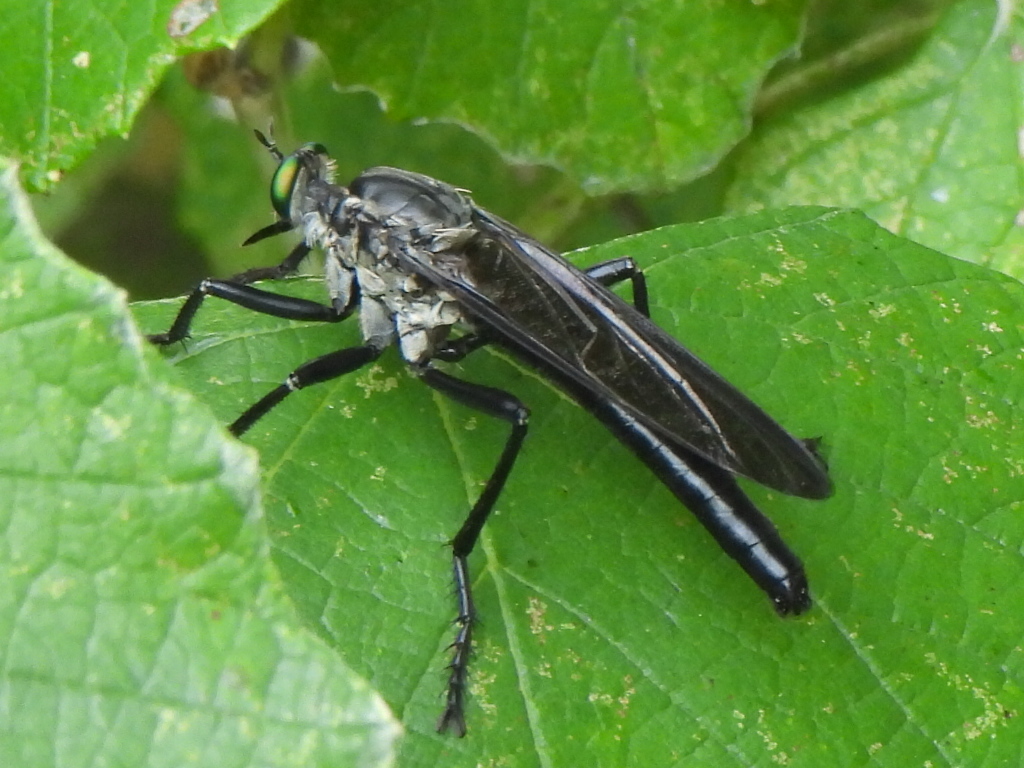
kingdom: Animalia
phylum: Arthropoda
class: Insecta
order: Diptera
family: Asilidae
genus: Microstylum
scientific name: Microstylum morosum
